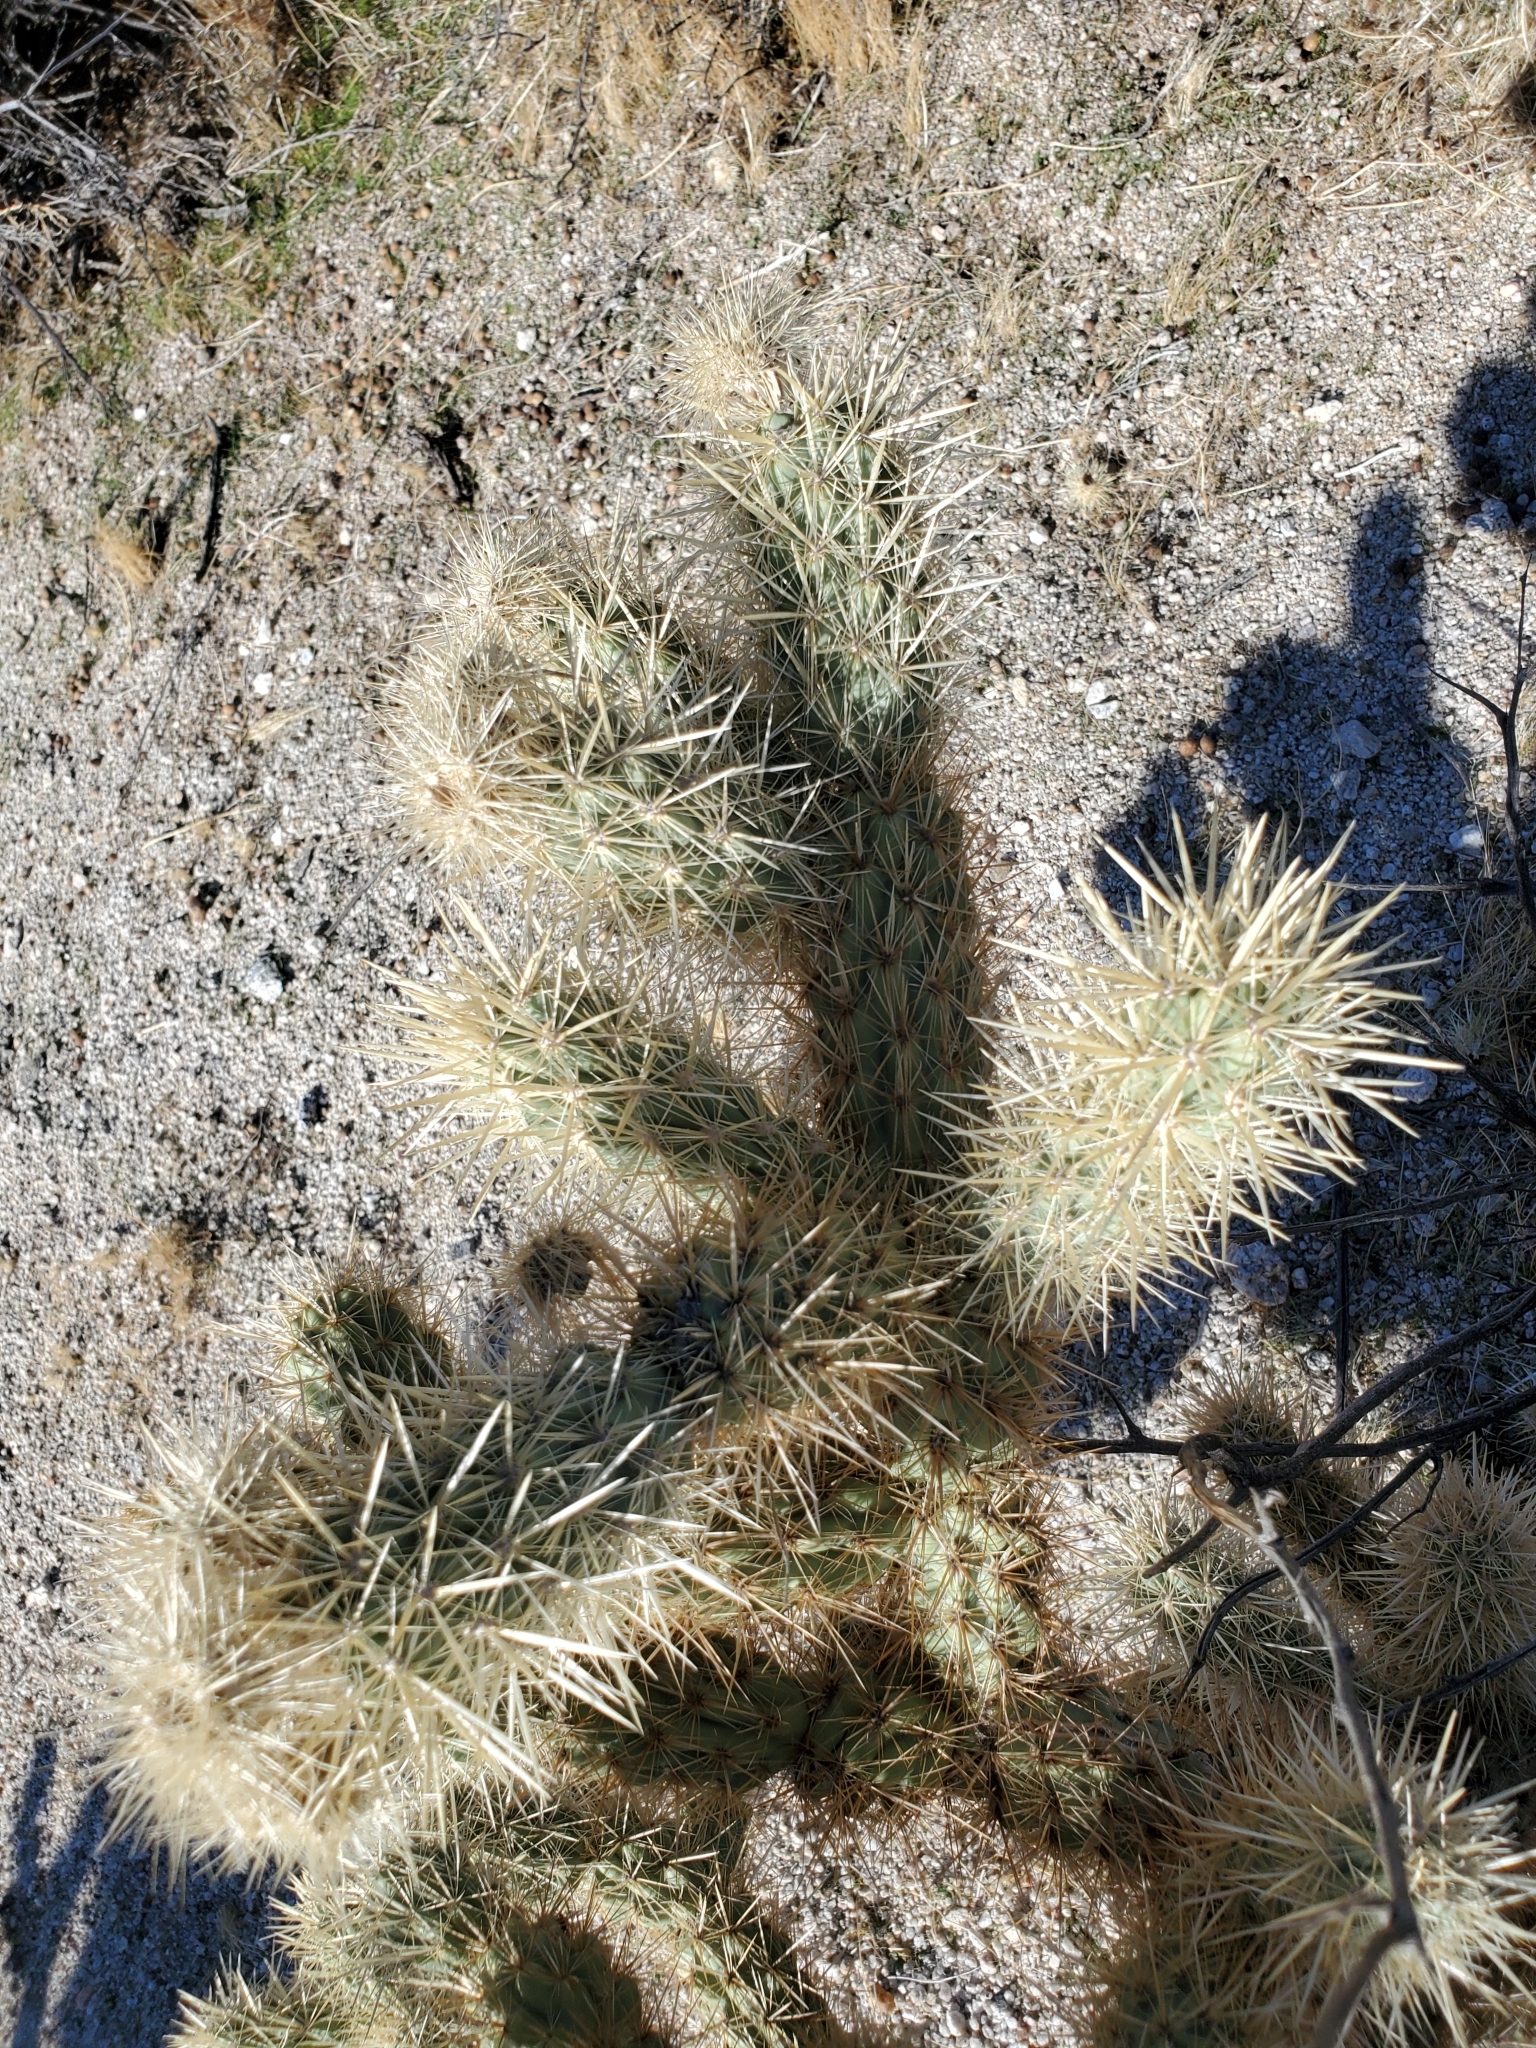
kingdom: Plantae
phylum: Tracheophyta
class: Magnoliopsida
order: Caryophyllales
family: Cactaceae
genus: Cylindropuntia
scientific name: Cylindropuntia wolfii
